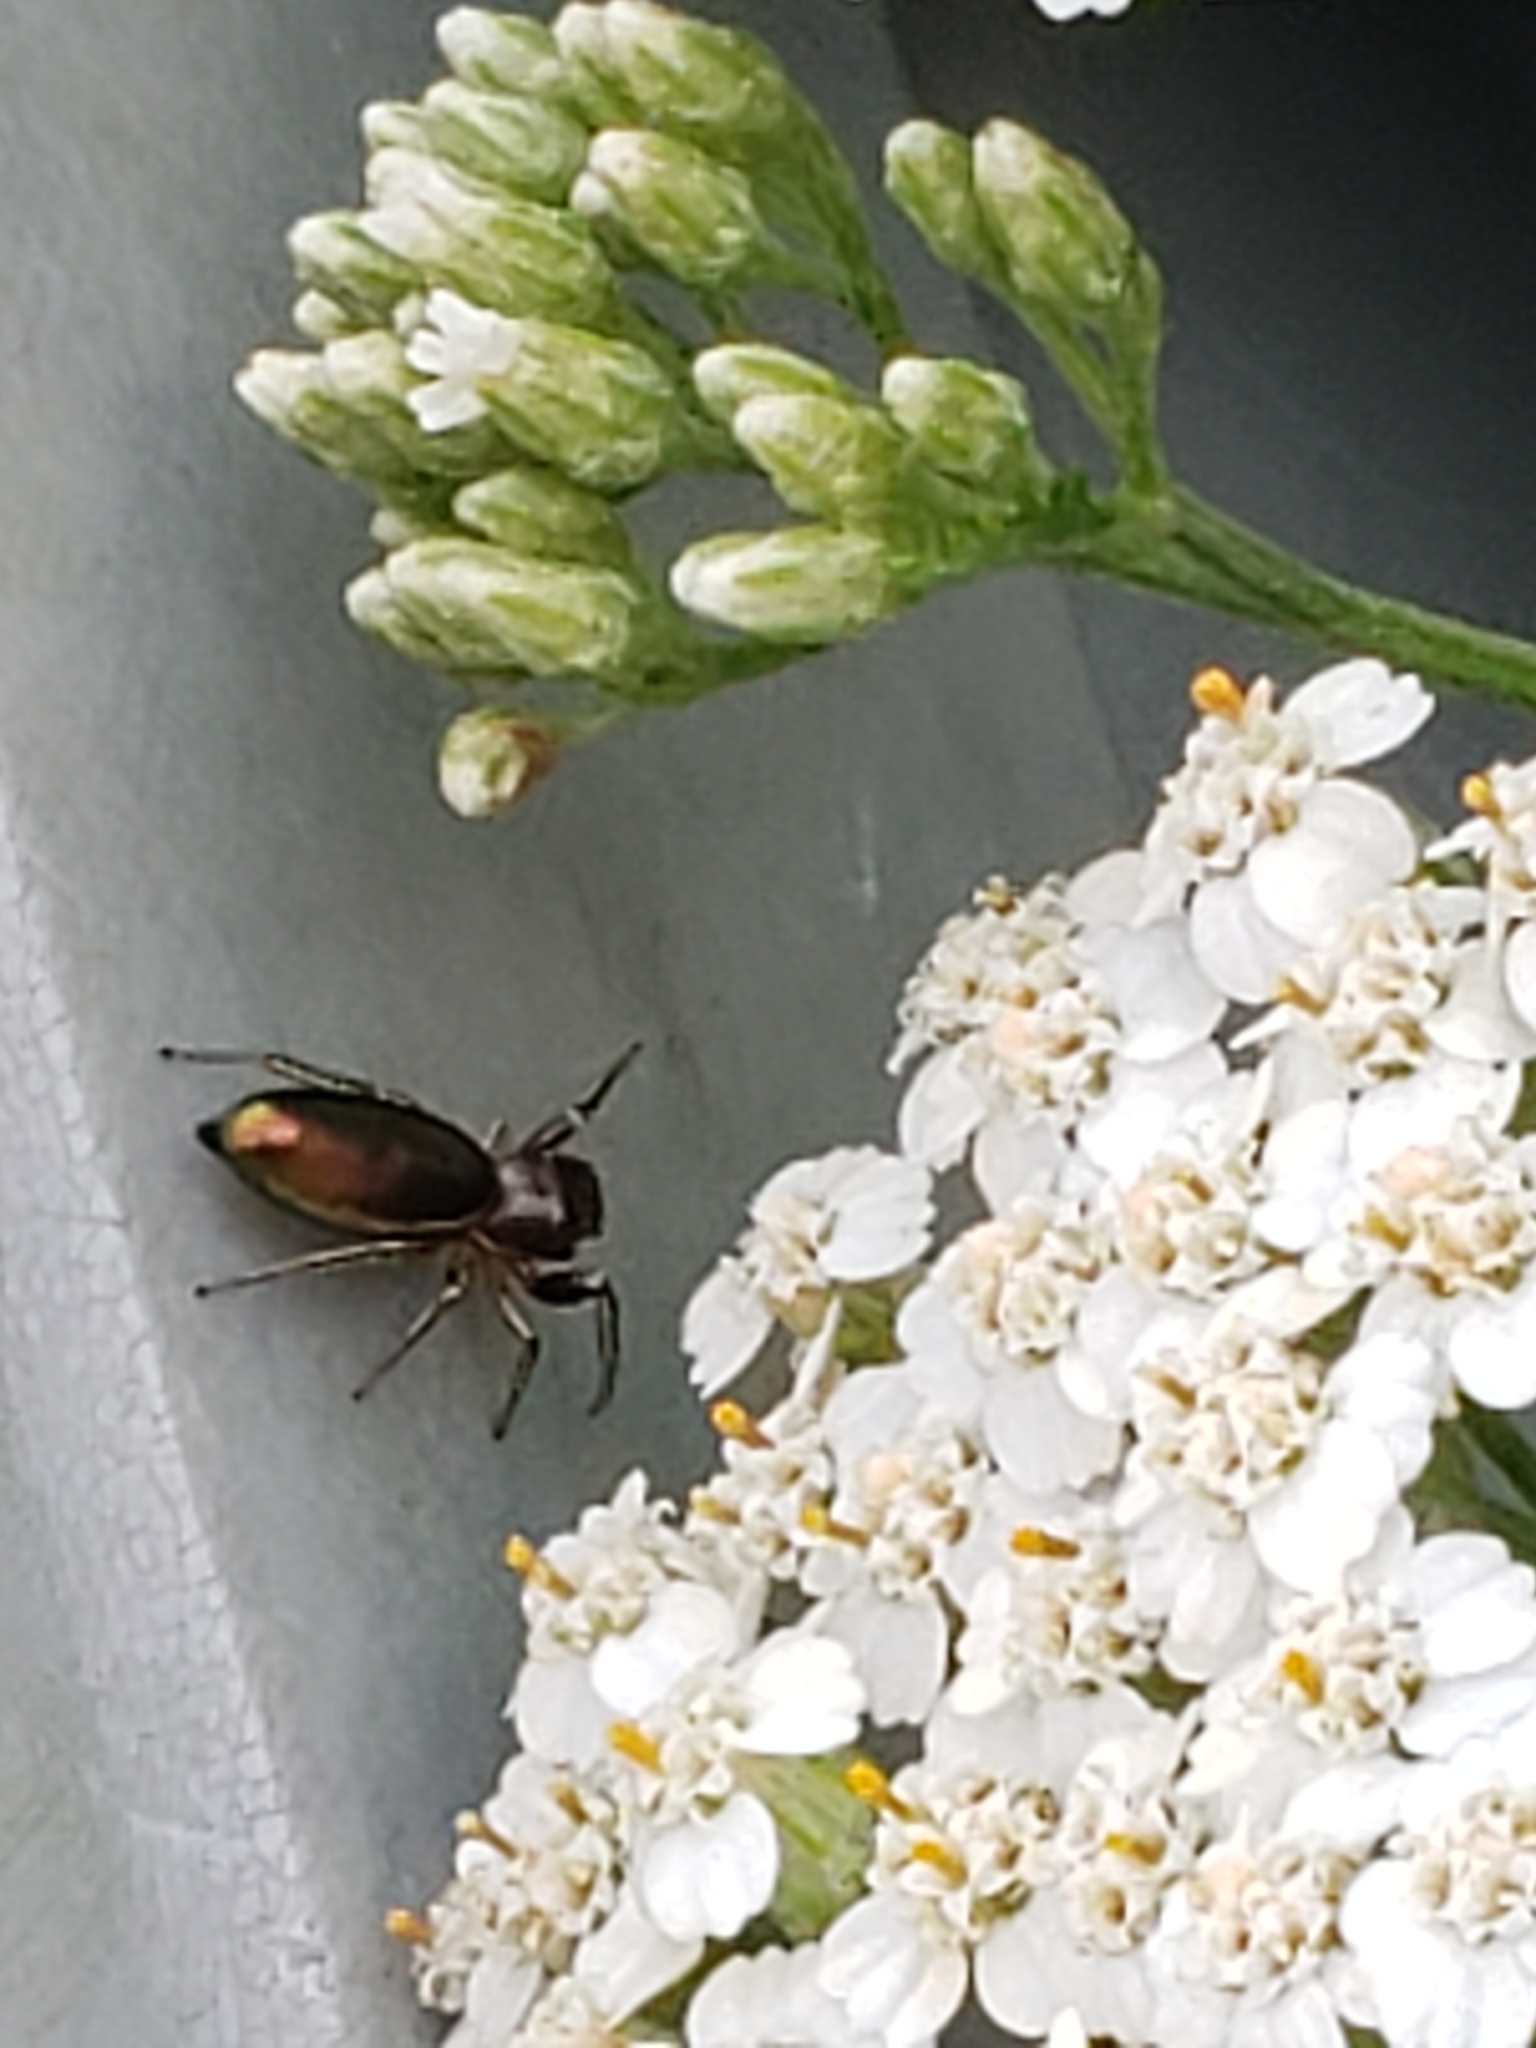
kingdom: Animalia
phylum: Arthropoda
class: Arachnida
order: Araneae
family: Salticidae
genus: Tutelina
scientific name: Tutelina elegans
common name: Thin-spined jumping spider
